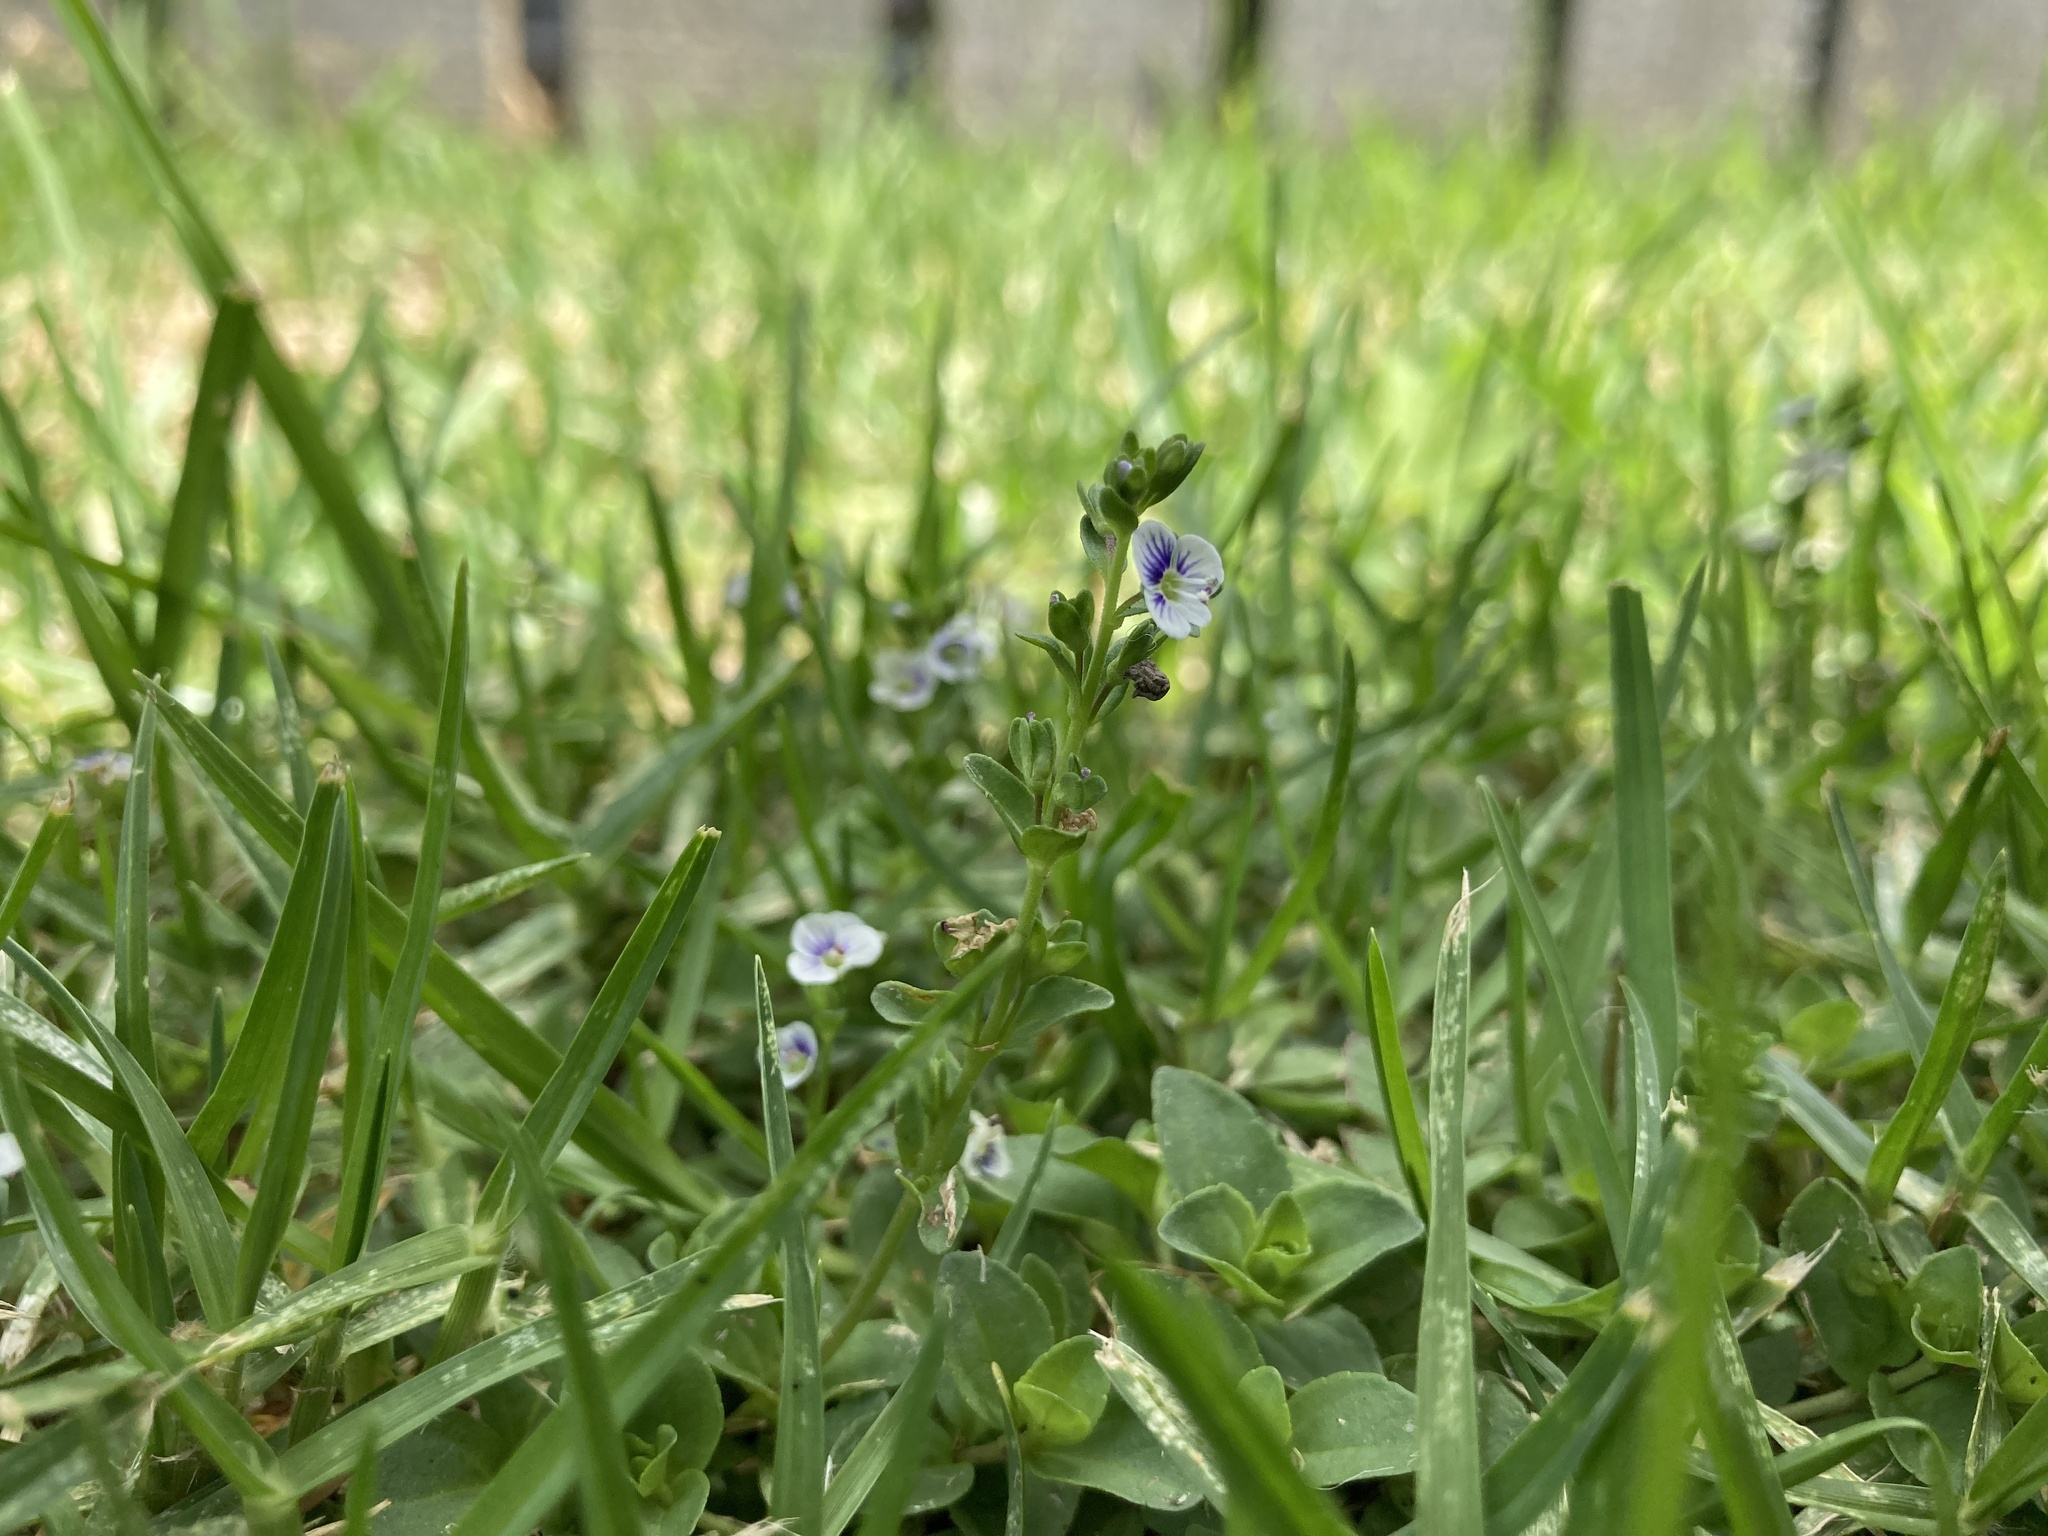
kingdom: Plantae
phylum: Tracheophyta
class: Magnoliopsida
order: Lamiales
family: Plantaginaceae
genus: Veronica
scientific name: Veronica serpyllifolia
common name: Thyme-leaved speedwell
